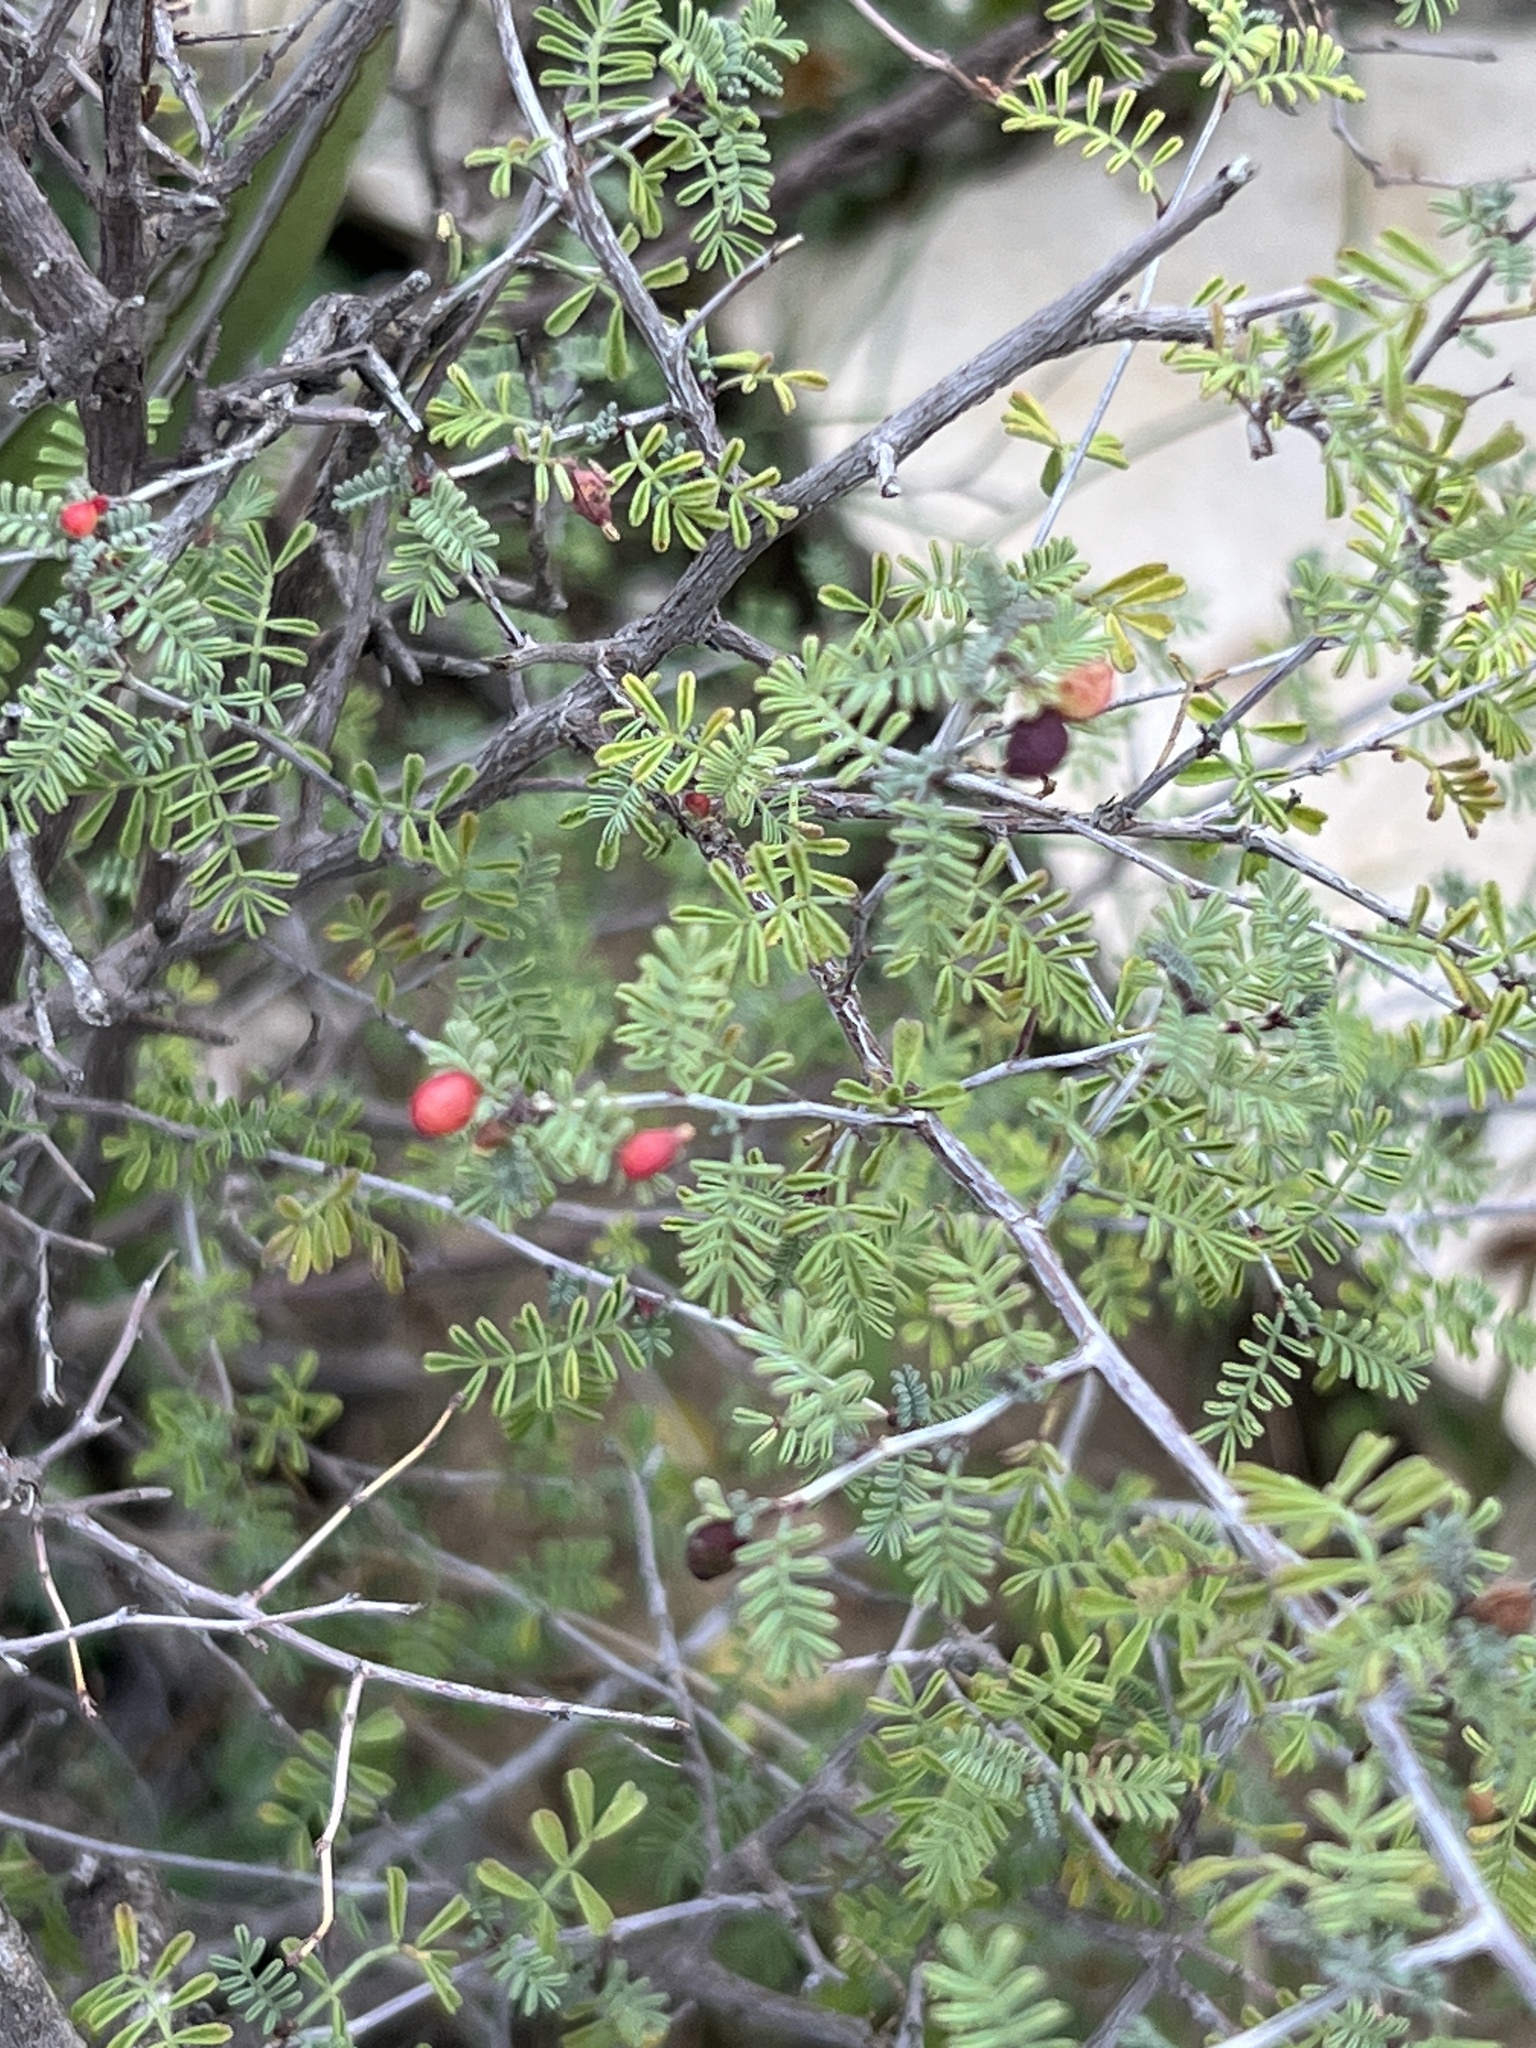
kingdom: Plantae
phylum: Tracheophyta
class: Magnoliopsida
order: Fabales
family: Fabaceae
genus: Dalea
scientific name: Dalea formosa
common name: Feather-plume dalea
